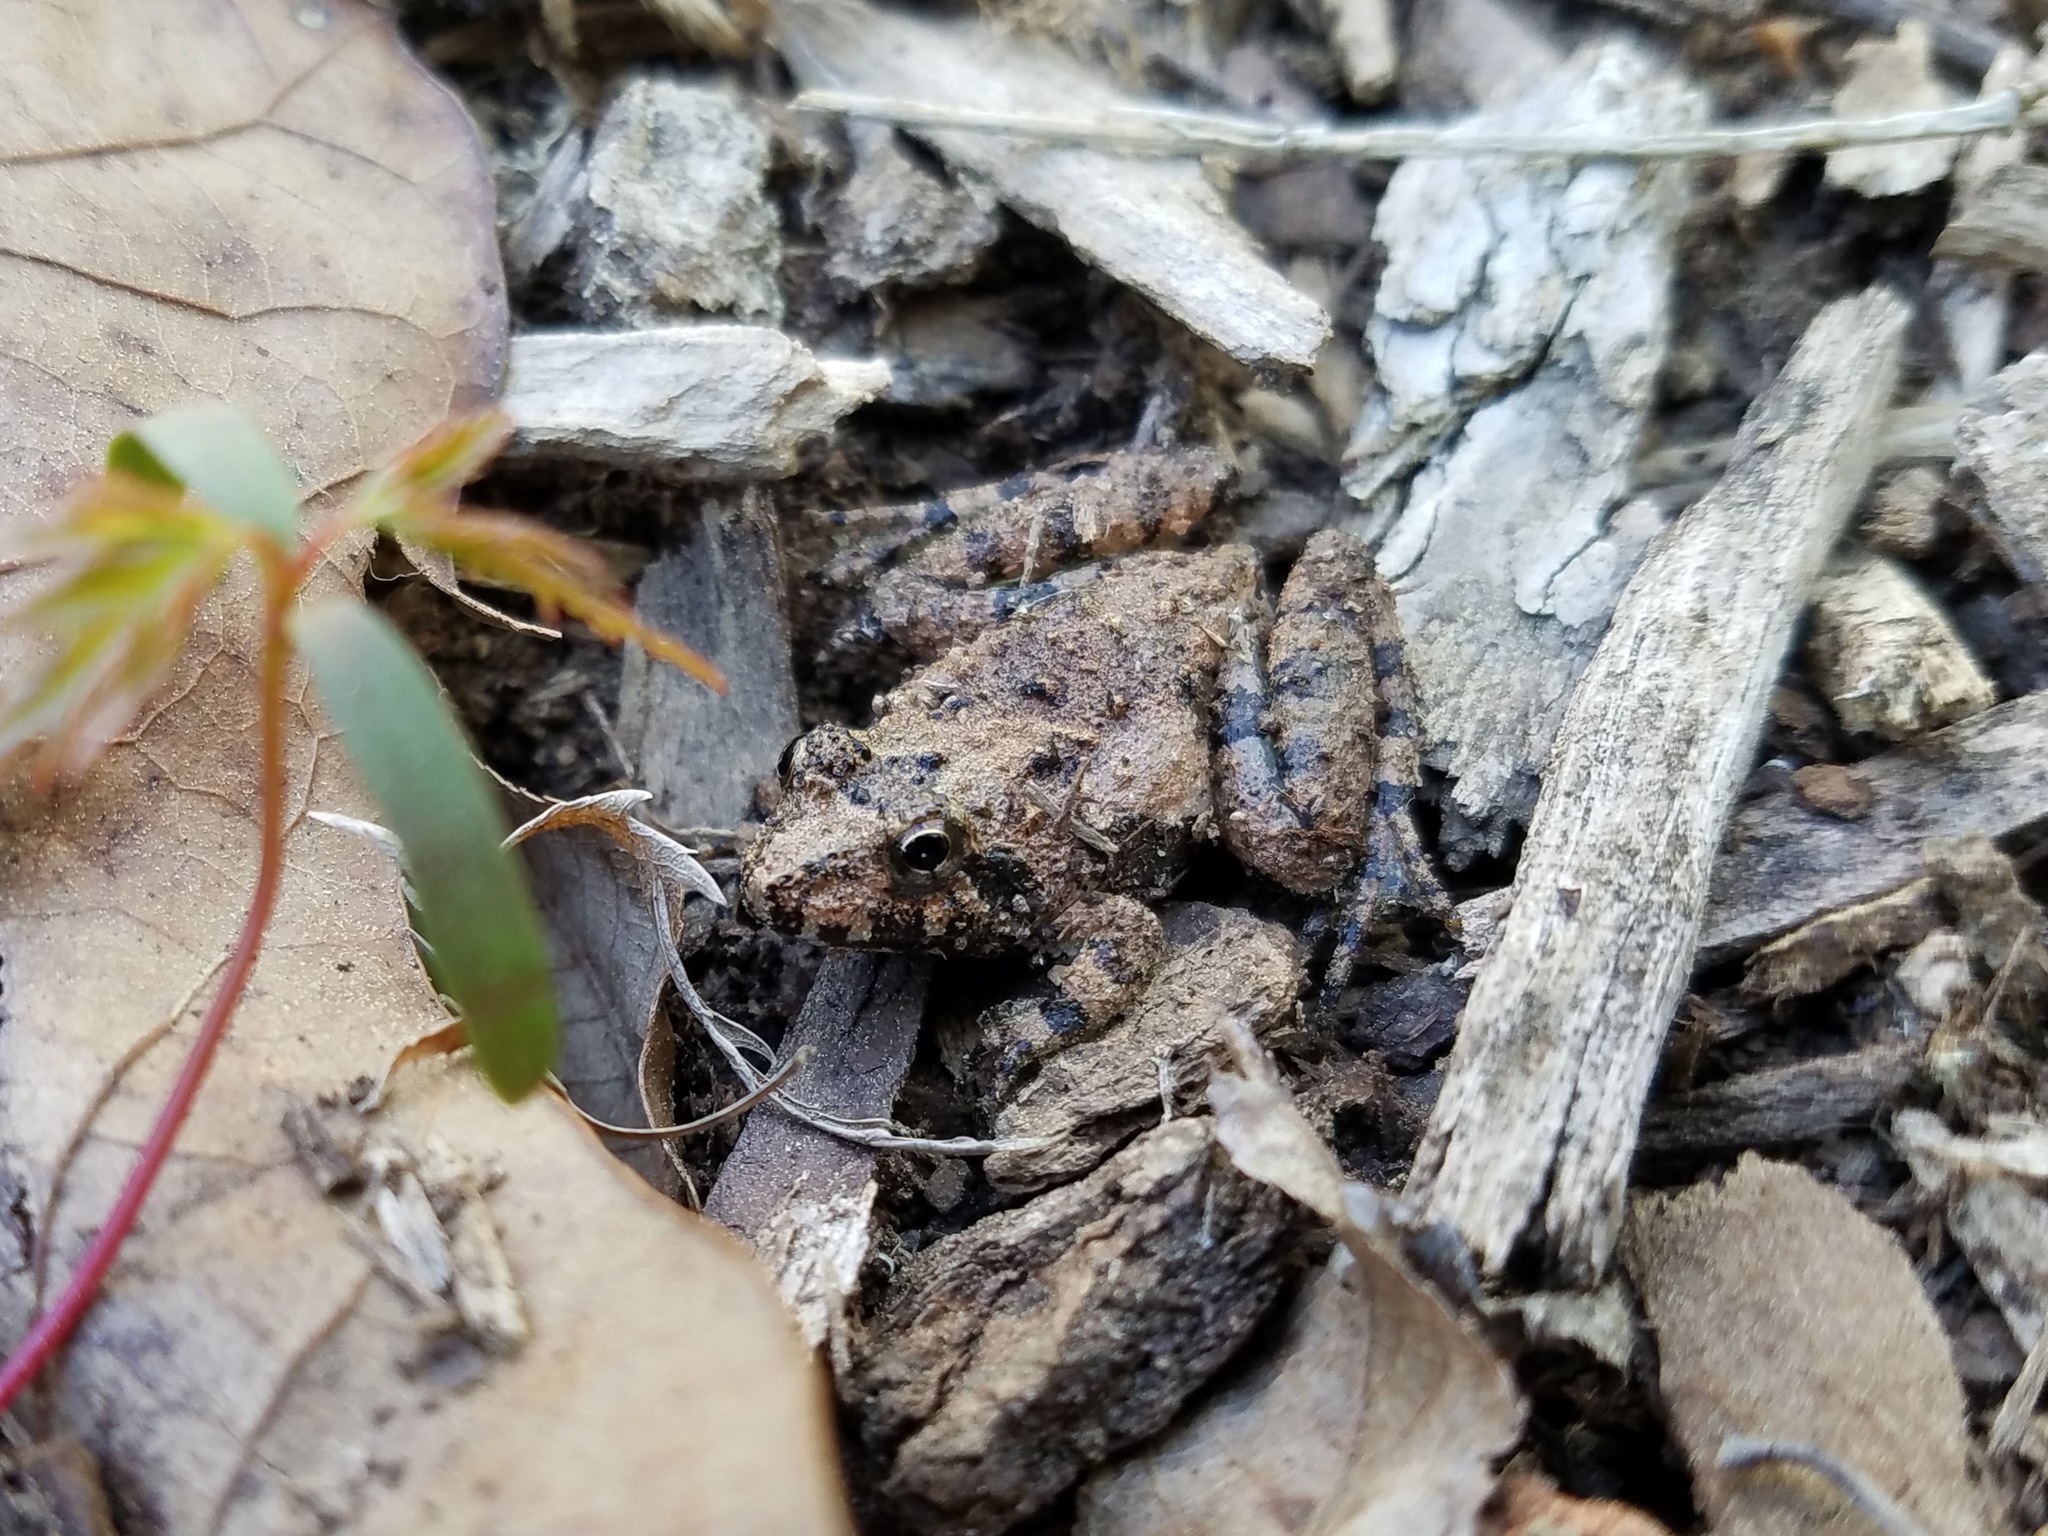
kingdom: Animalia
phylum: Chordata
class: Amphibia
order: Anura
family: Hylidae
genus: Acris
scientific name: Acris crepitans
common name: Northern cricket frog
